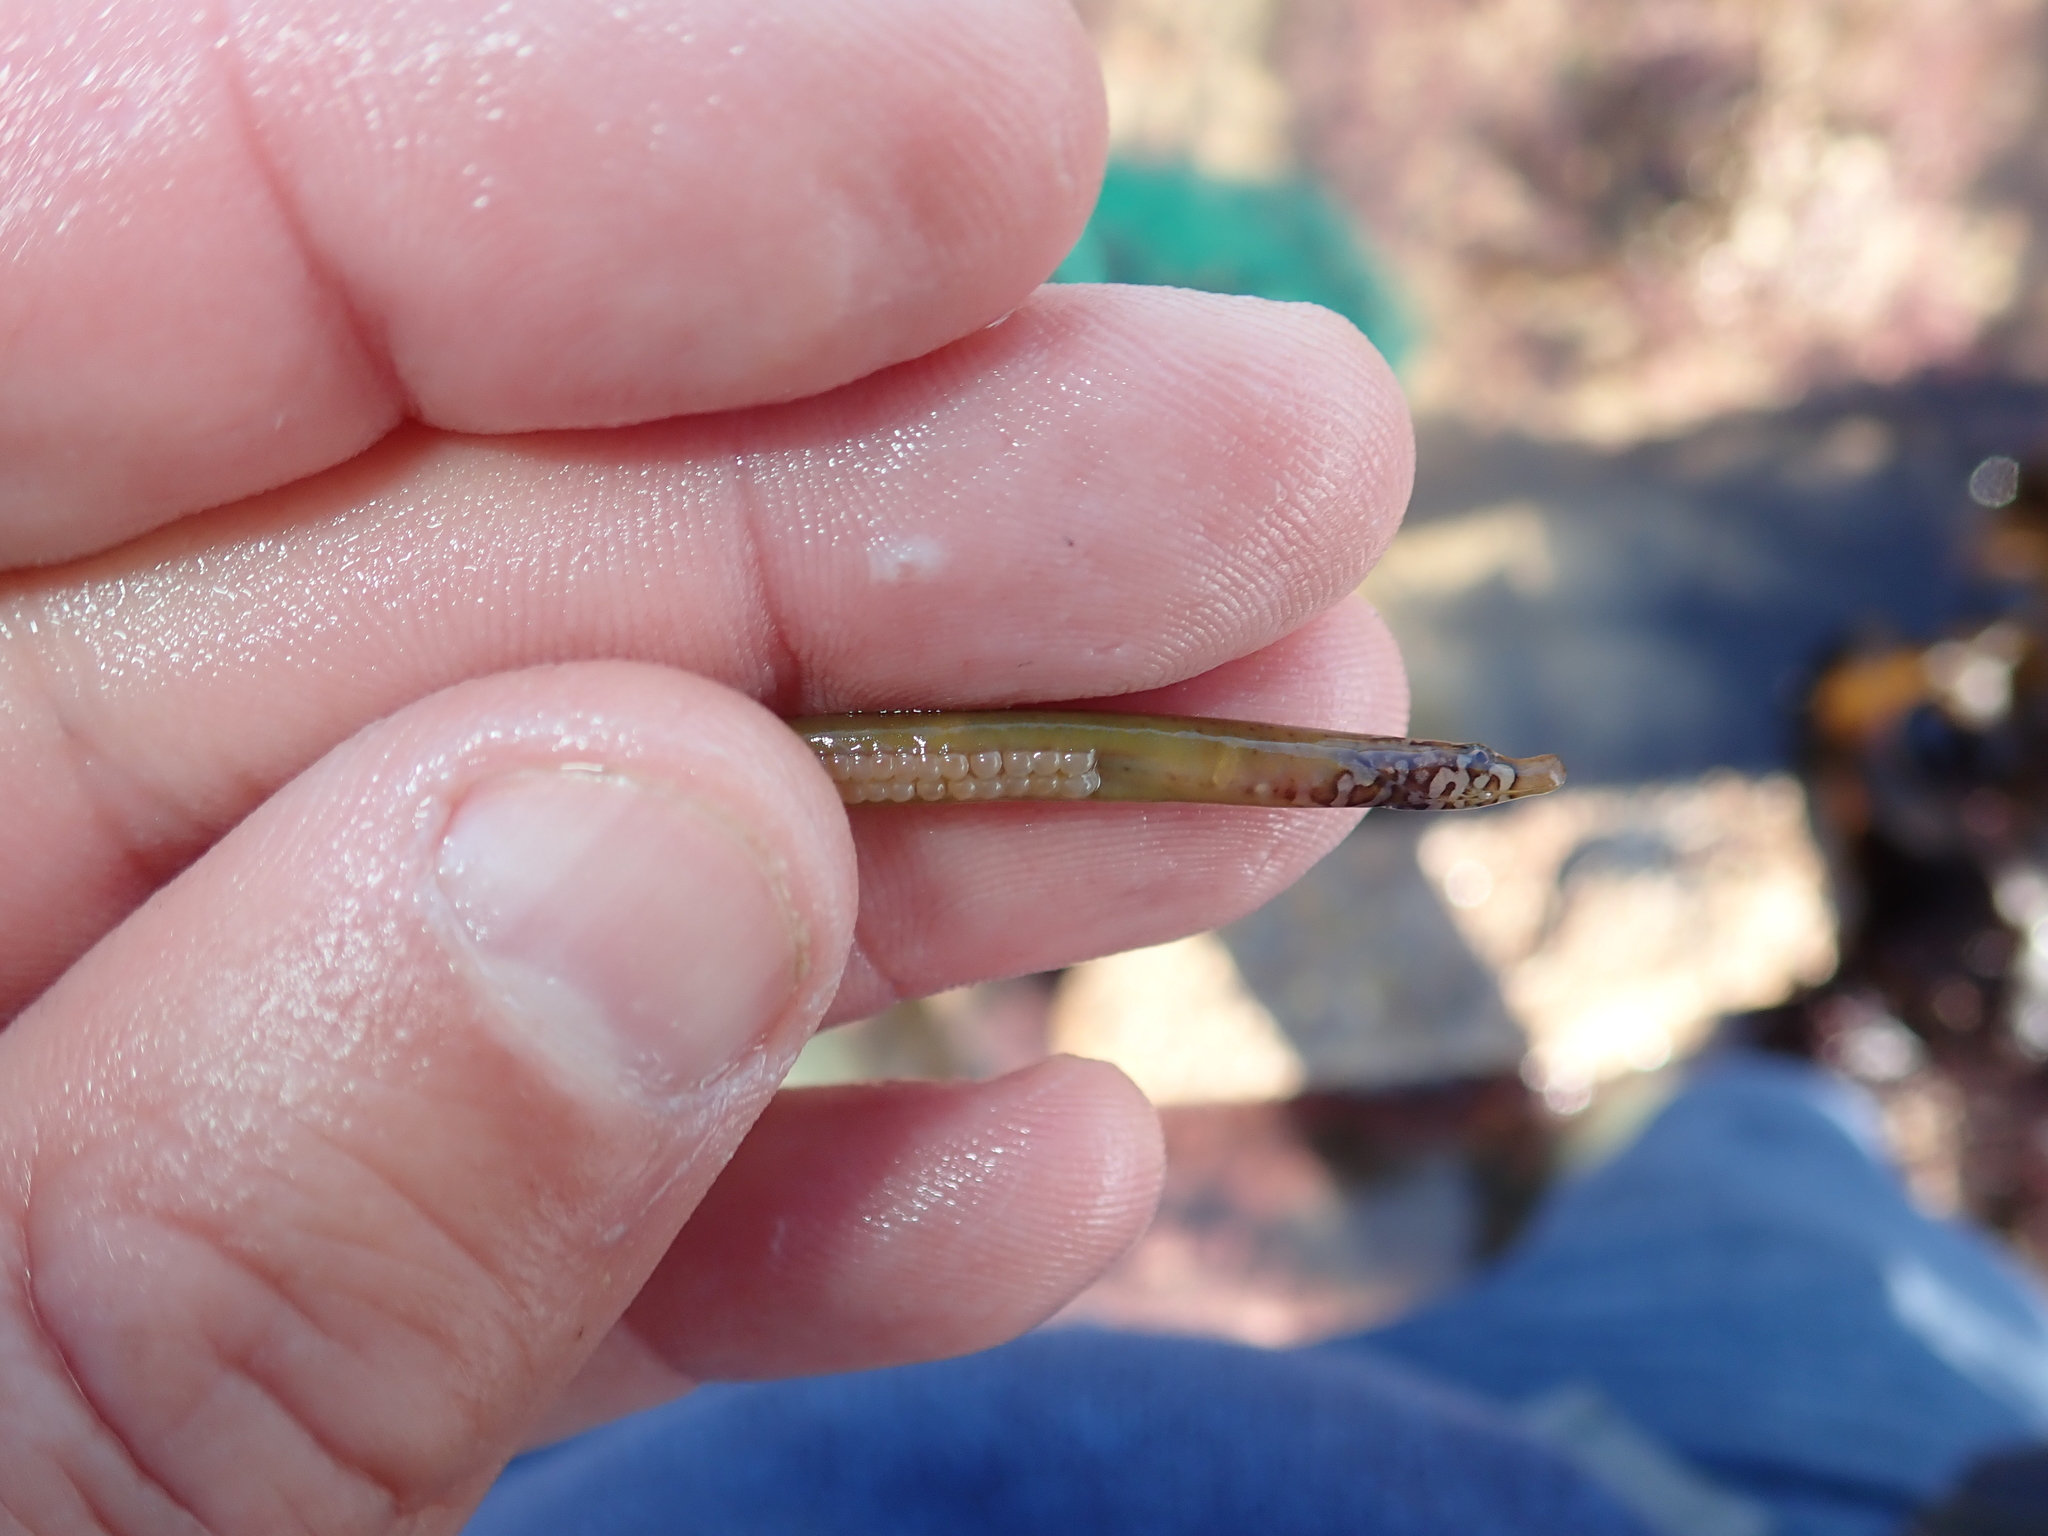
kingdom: Animalia
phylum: Chordata
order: Syngnathiformes
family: Syngnathidae
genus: Nerophis
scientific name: Nerophis lumbriciformis
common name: Worm pipefish
